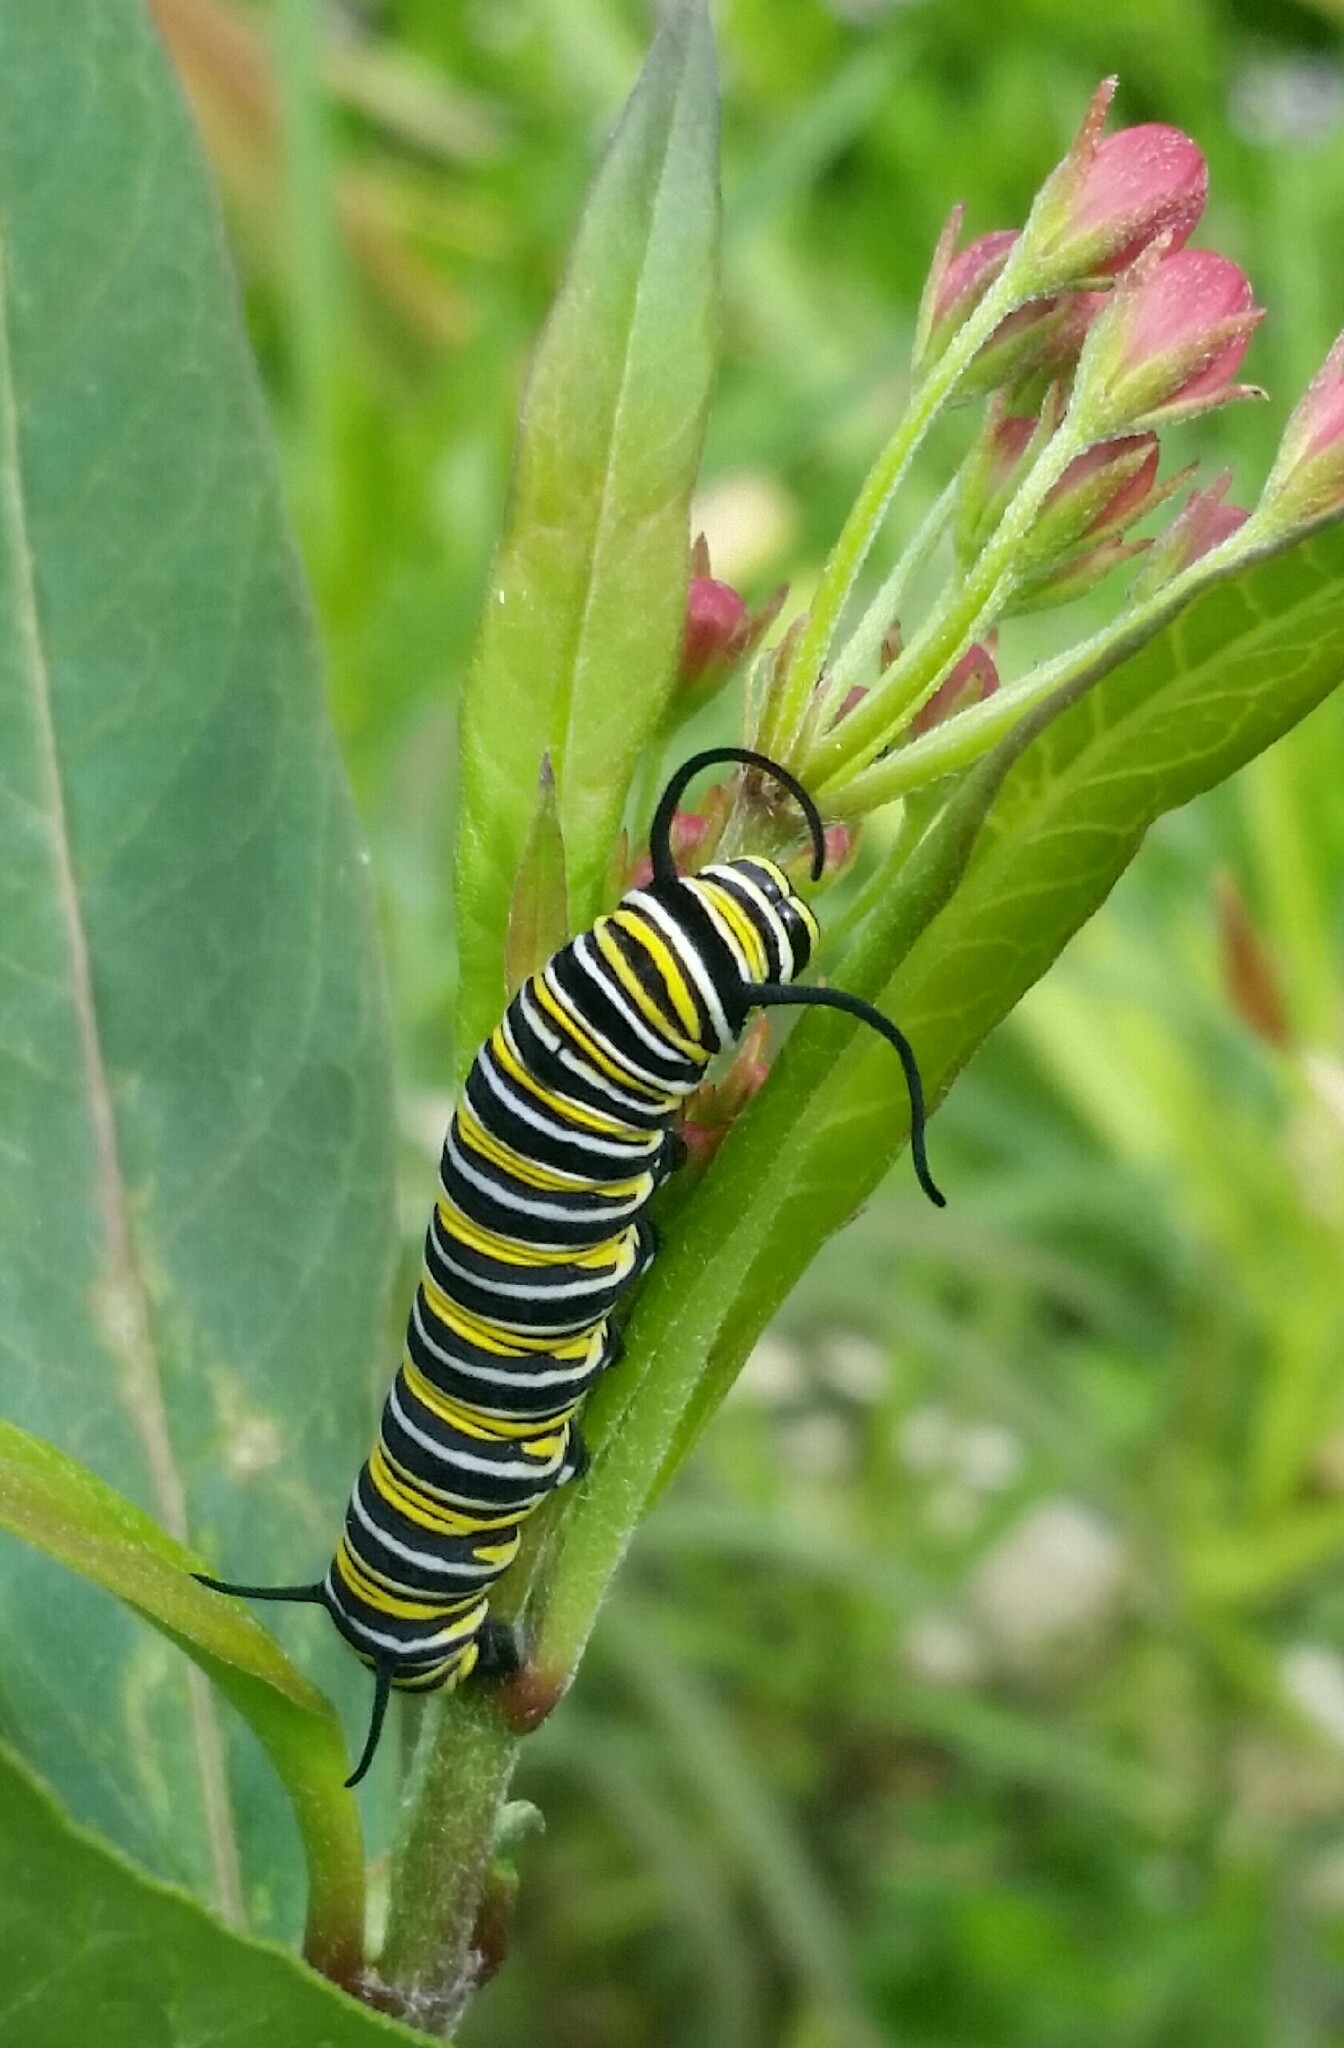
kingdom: Animalia
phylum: Arthropoda
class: Insecta
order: Lepidoptera
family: Nymphalidae
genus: Danaus
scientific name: Danaus plexippus
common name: Monarch
